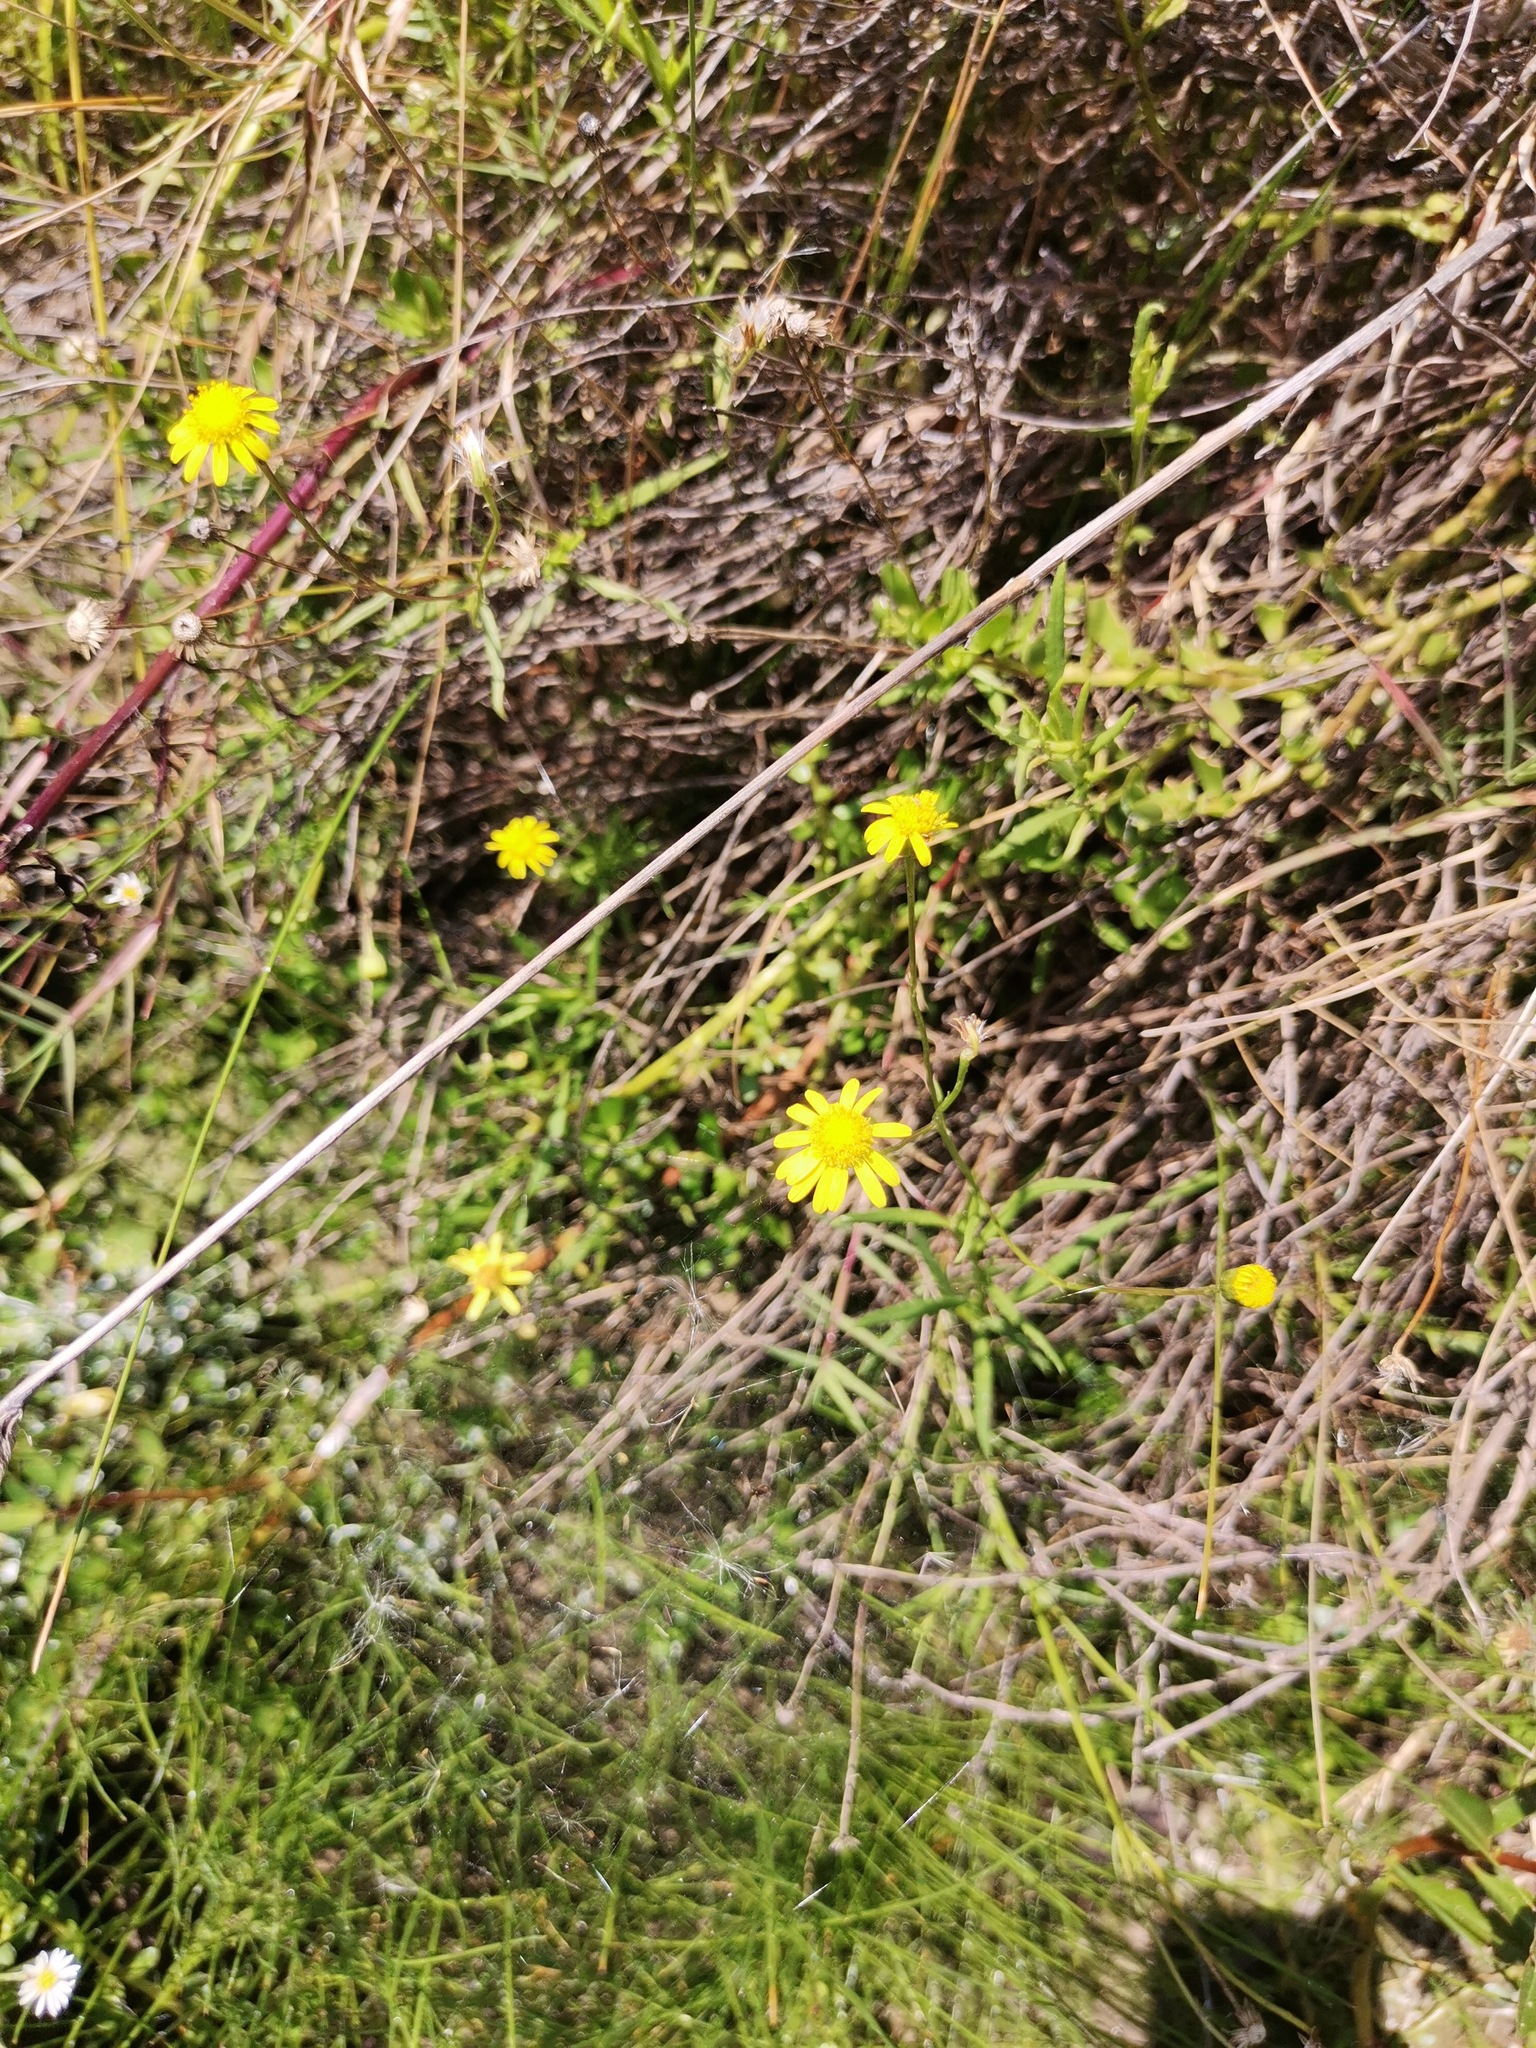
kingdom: Plantae
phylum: Tracheophyta
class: Magnoliopsida
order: Asterales
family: Asteraceae
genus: Senecio
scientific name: Senecio inaequidens
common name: Narrow-leaved ragwort
